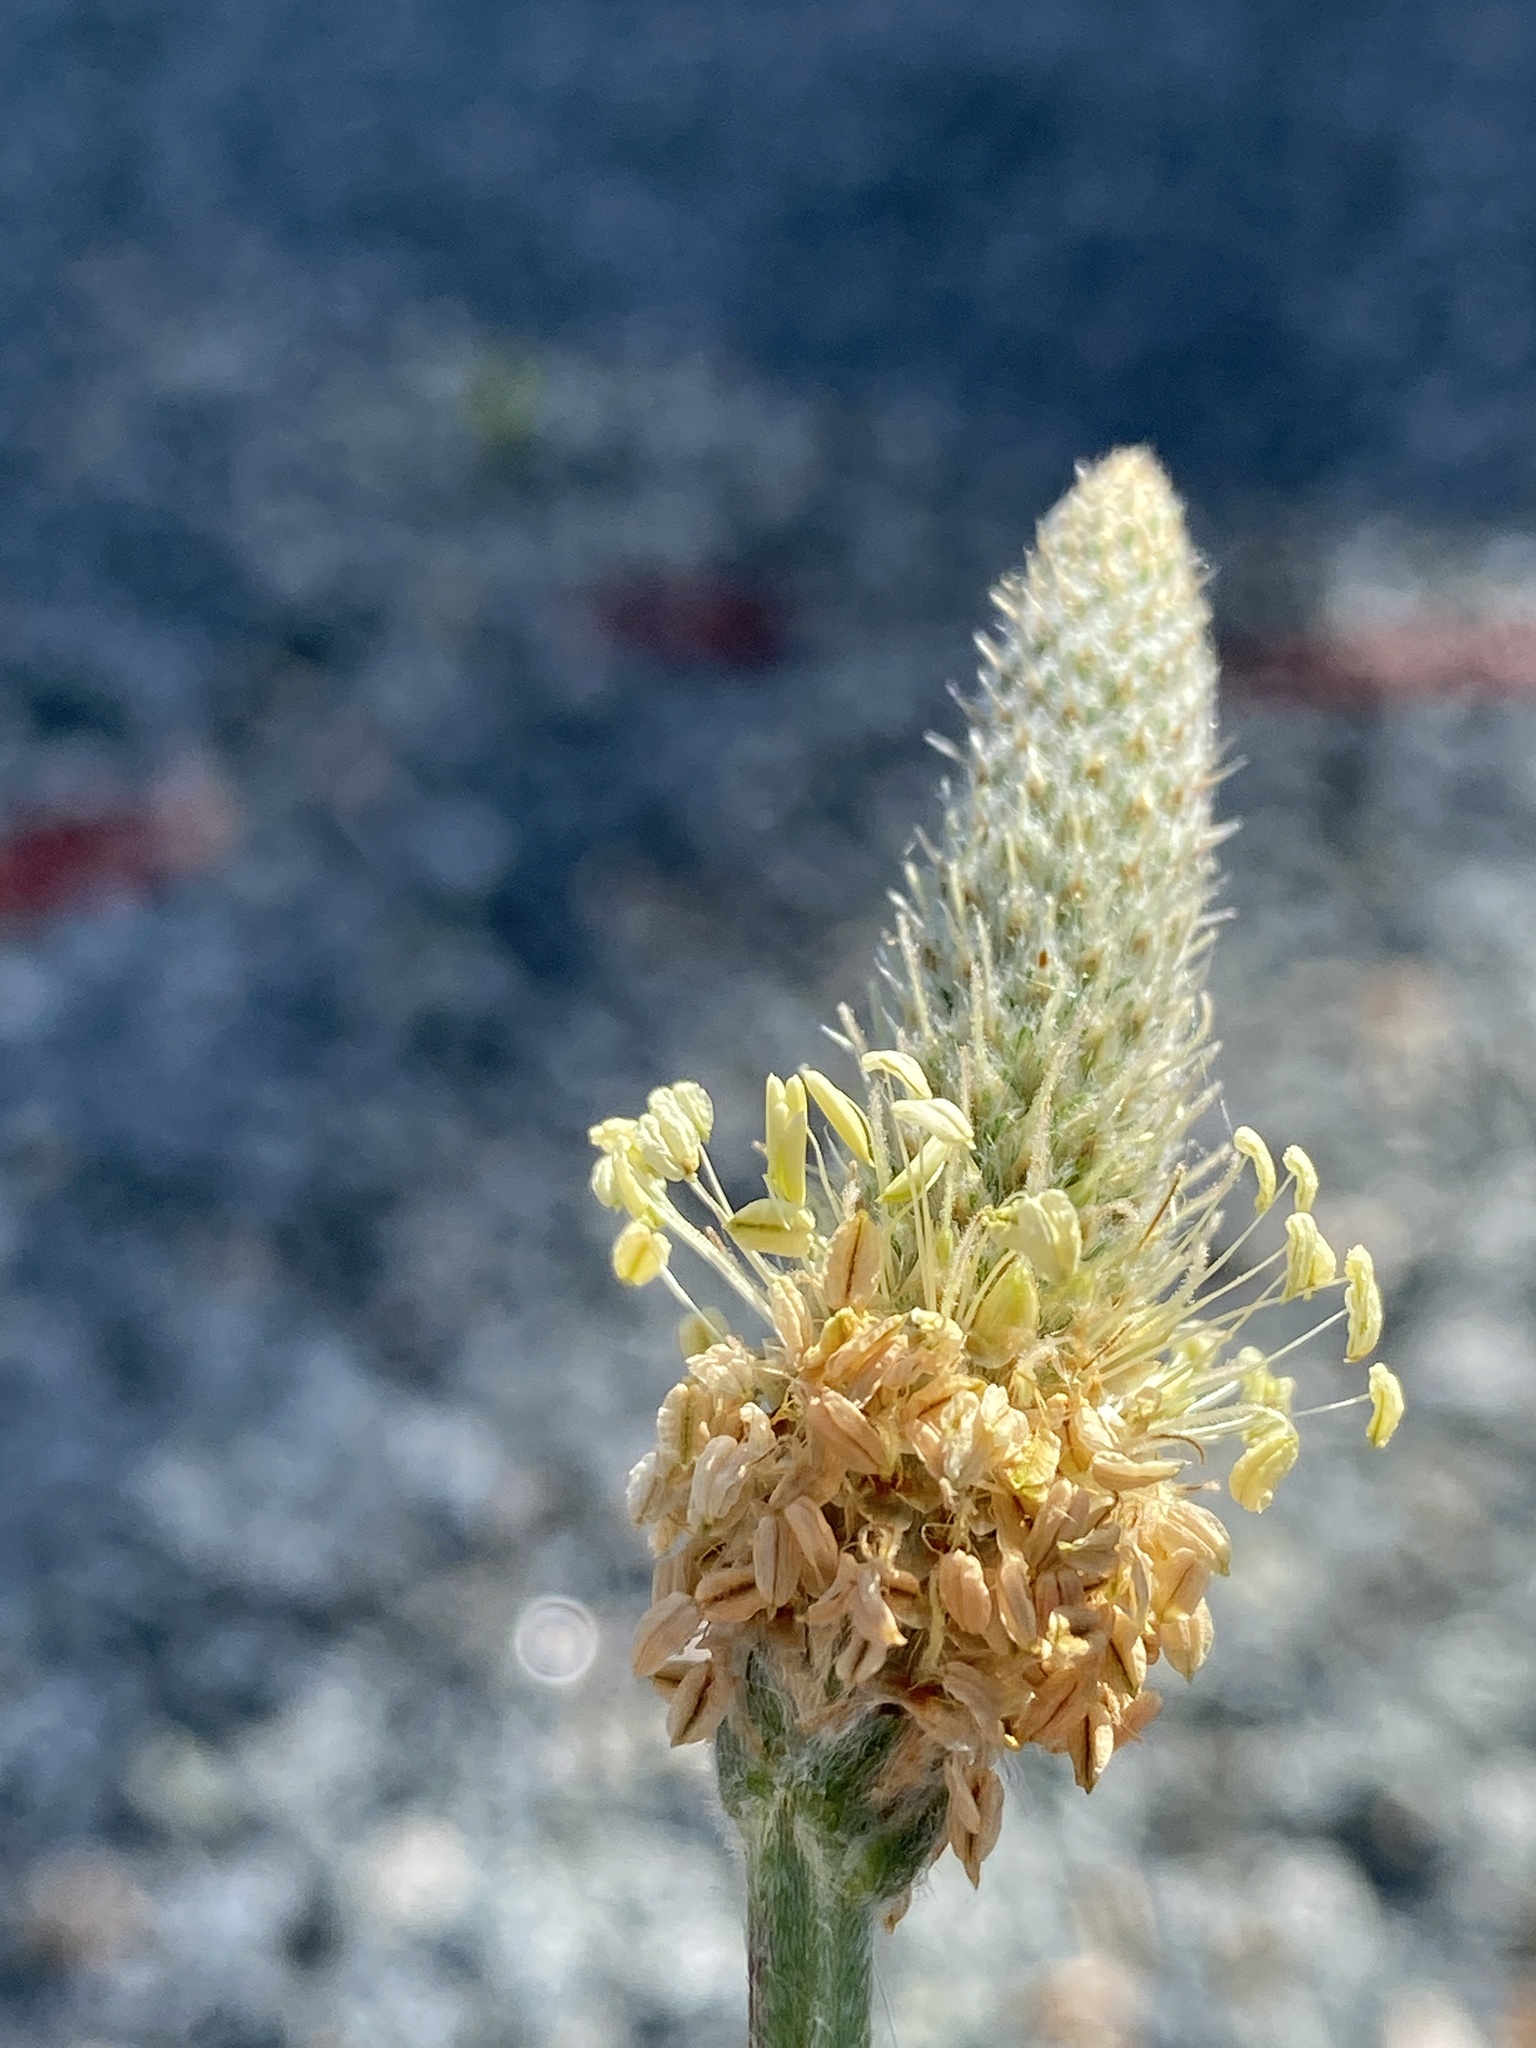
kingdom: Plantae
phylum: Tracheophyta
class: Magnoliopsida
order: Lamiales
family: Plantaginaceae
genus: Plantago
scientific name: Plantago lanceolata
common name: Ribwort plantain
